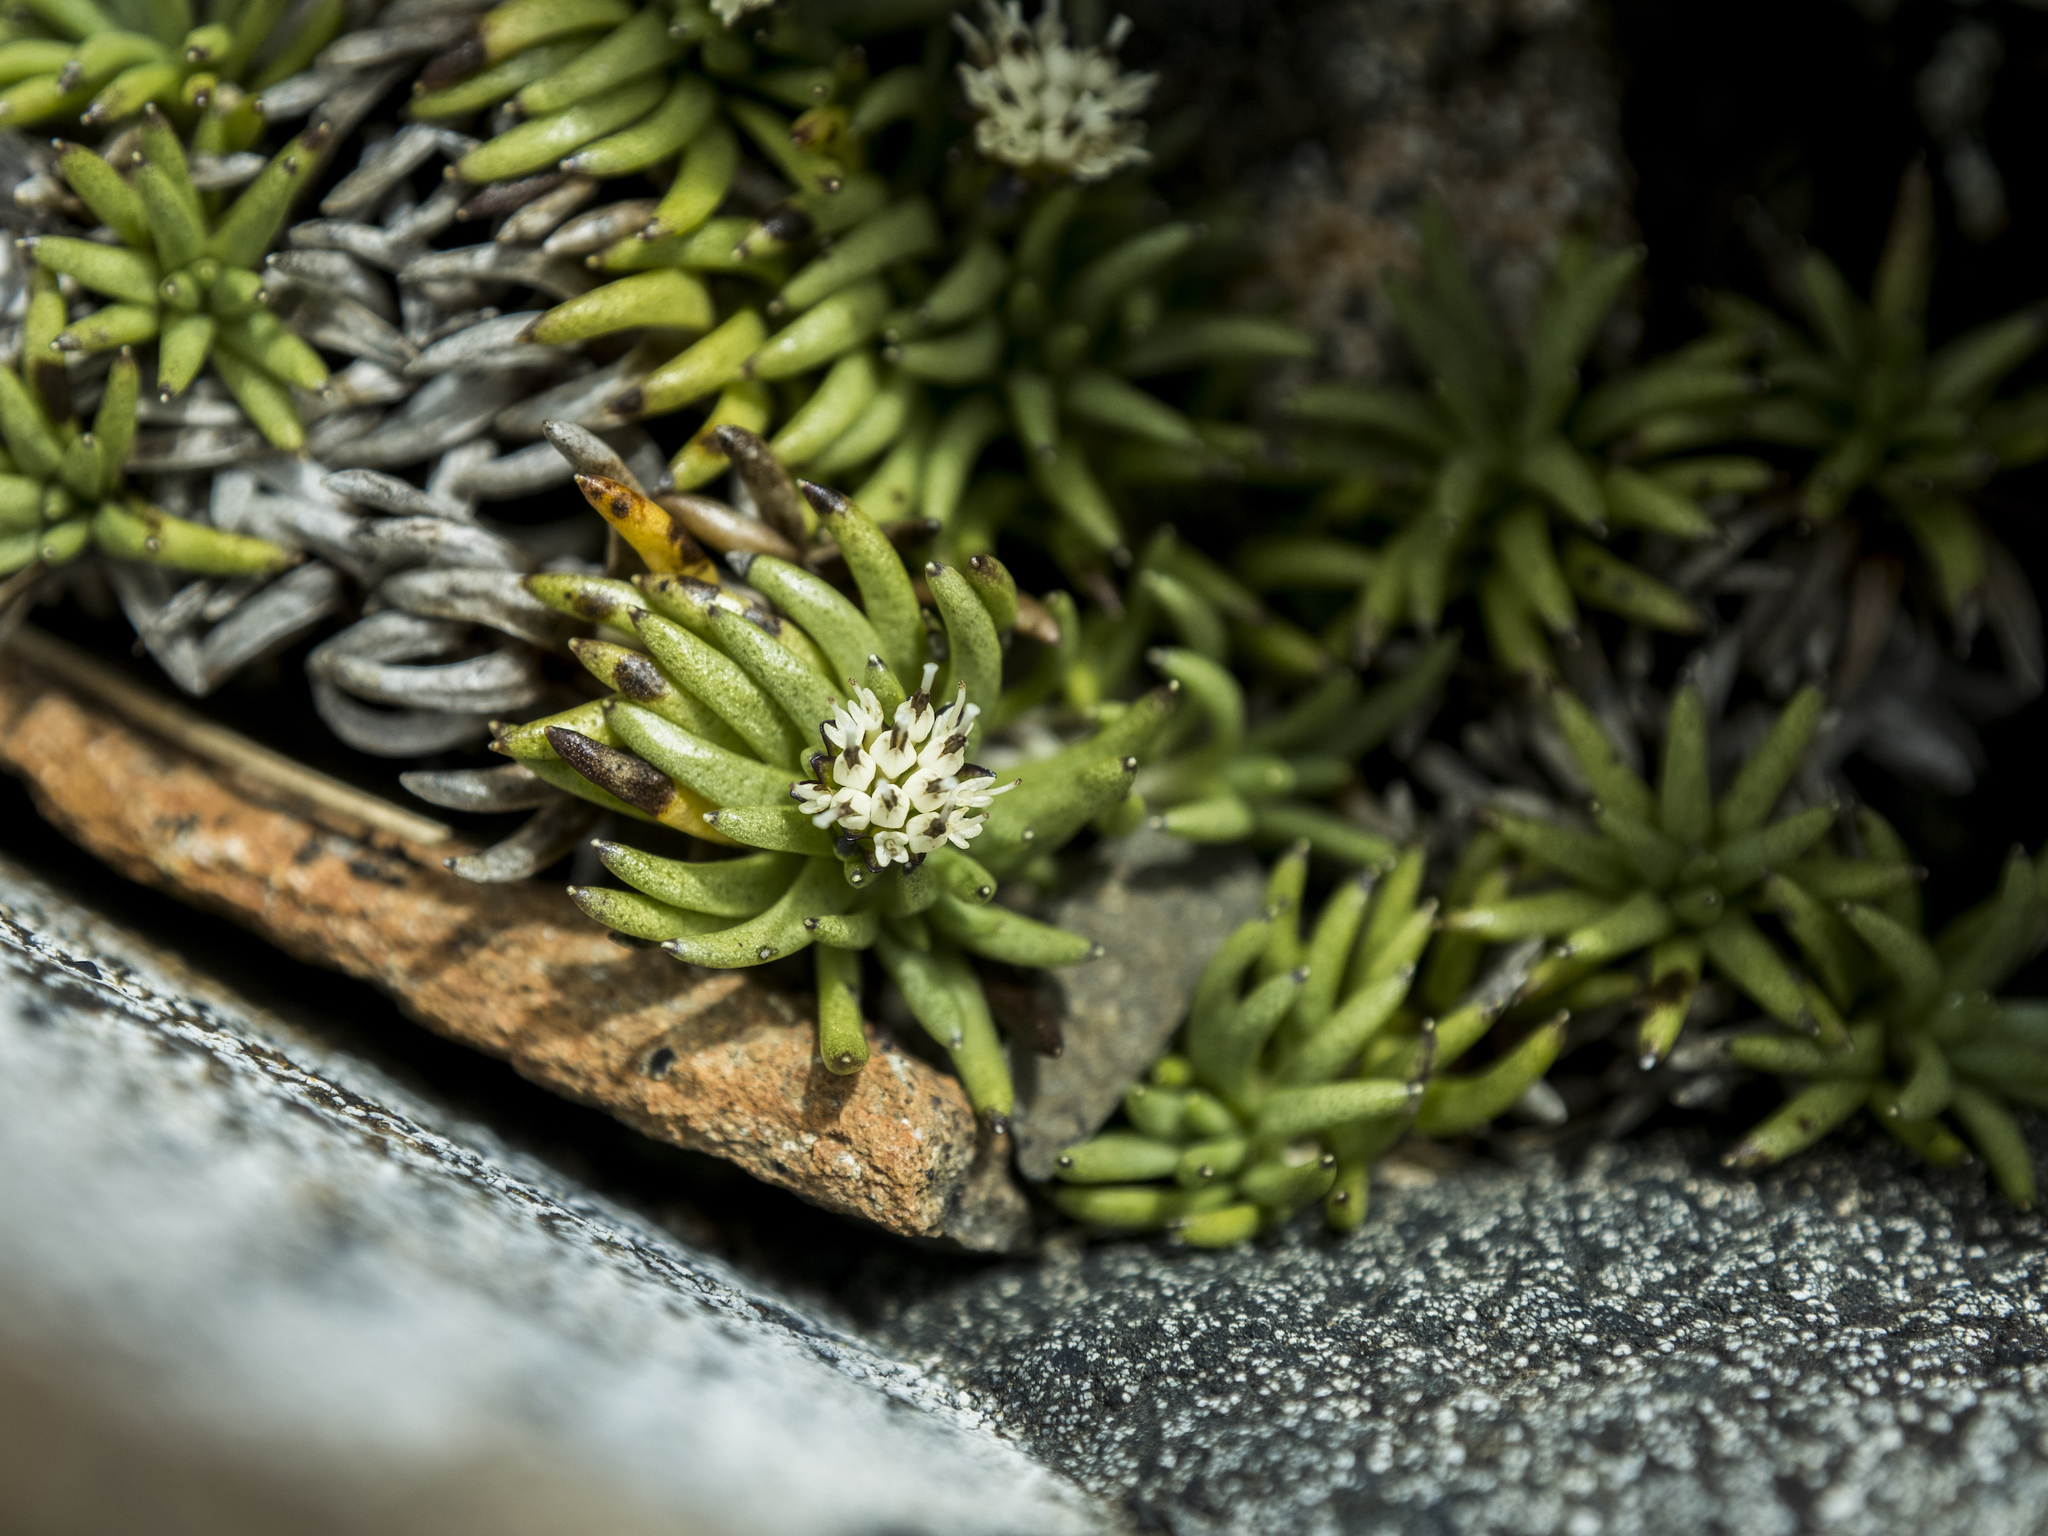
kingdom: Plantae
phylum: Tracheophyta
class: Magnoliopsida
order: Asterales
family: Asteraceae
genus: Abrotanella
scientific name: Abrotanella inconspicua
